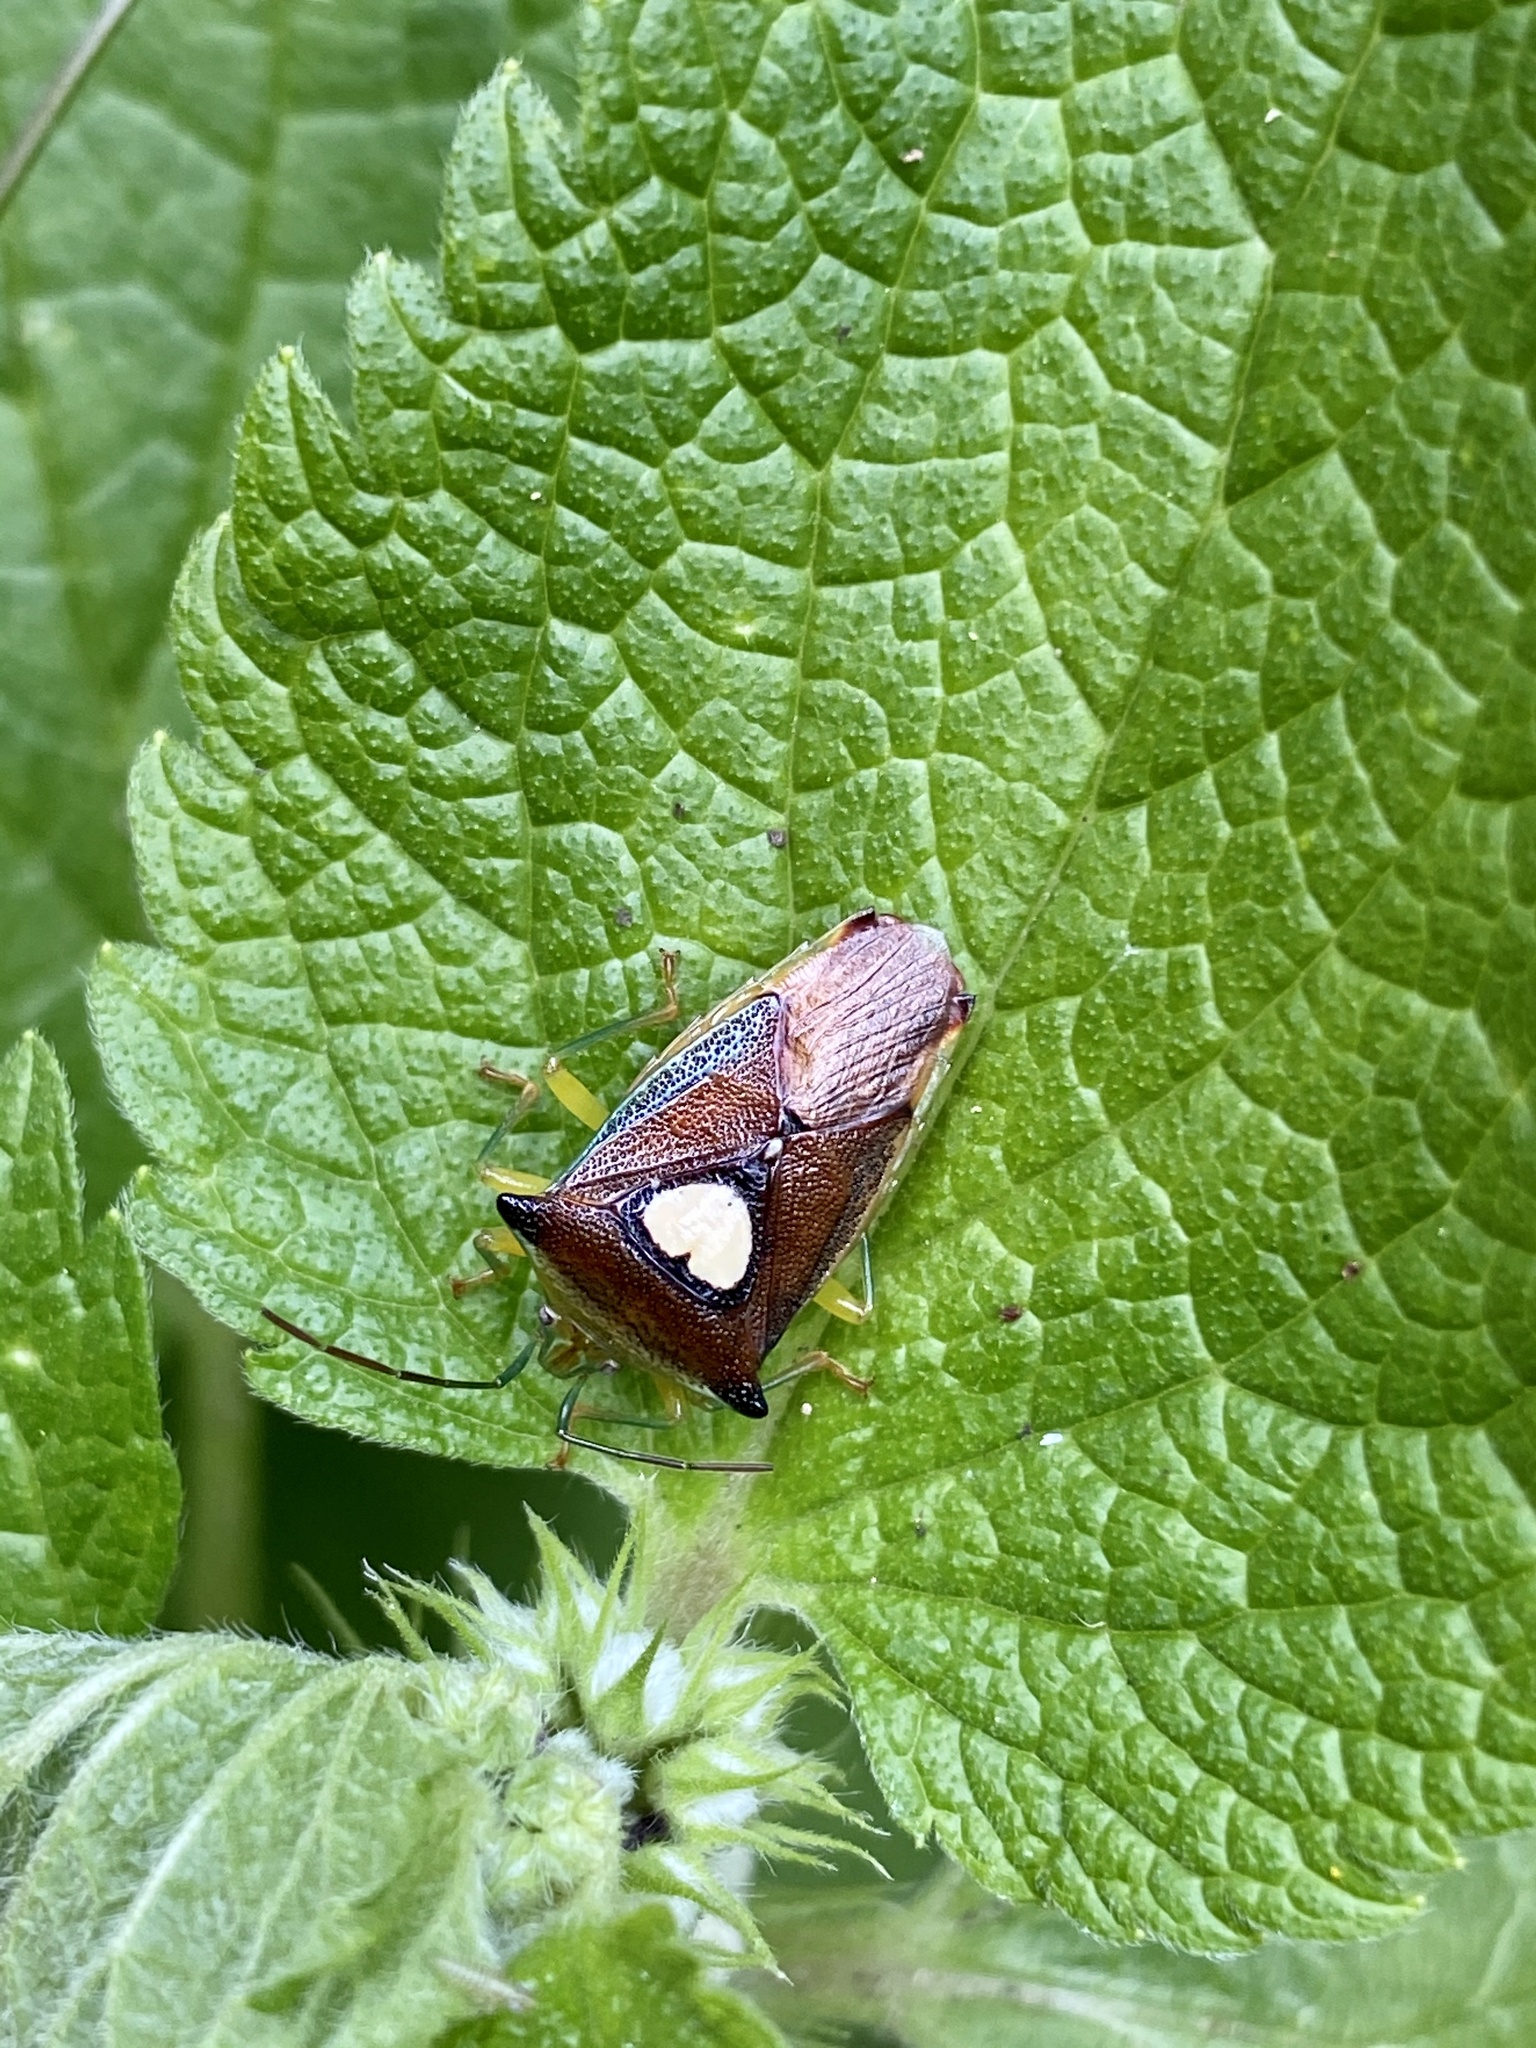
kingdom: Animalia
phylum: Arthropoda
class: Insecta
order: Hemiptera
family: Acanthosomatidae
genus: Sastragala
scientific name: Sastragala esakii
